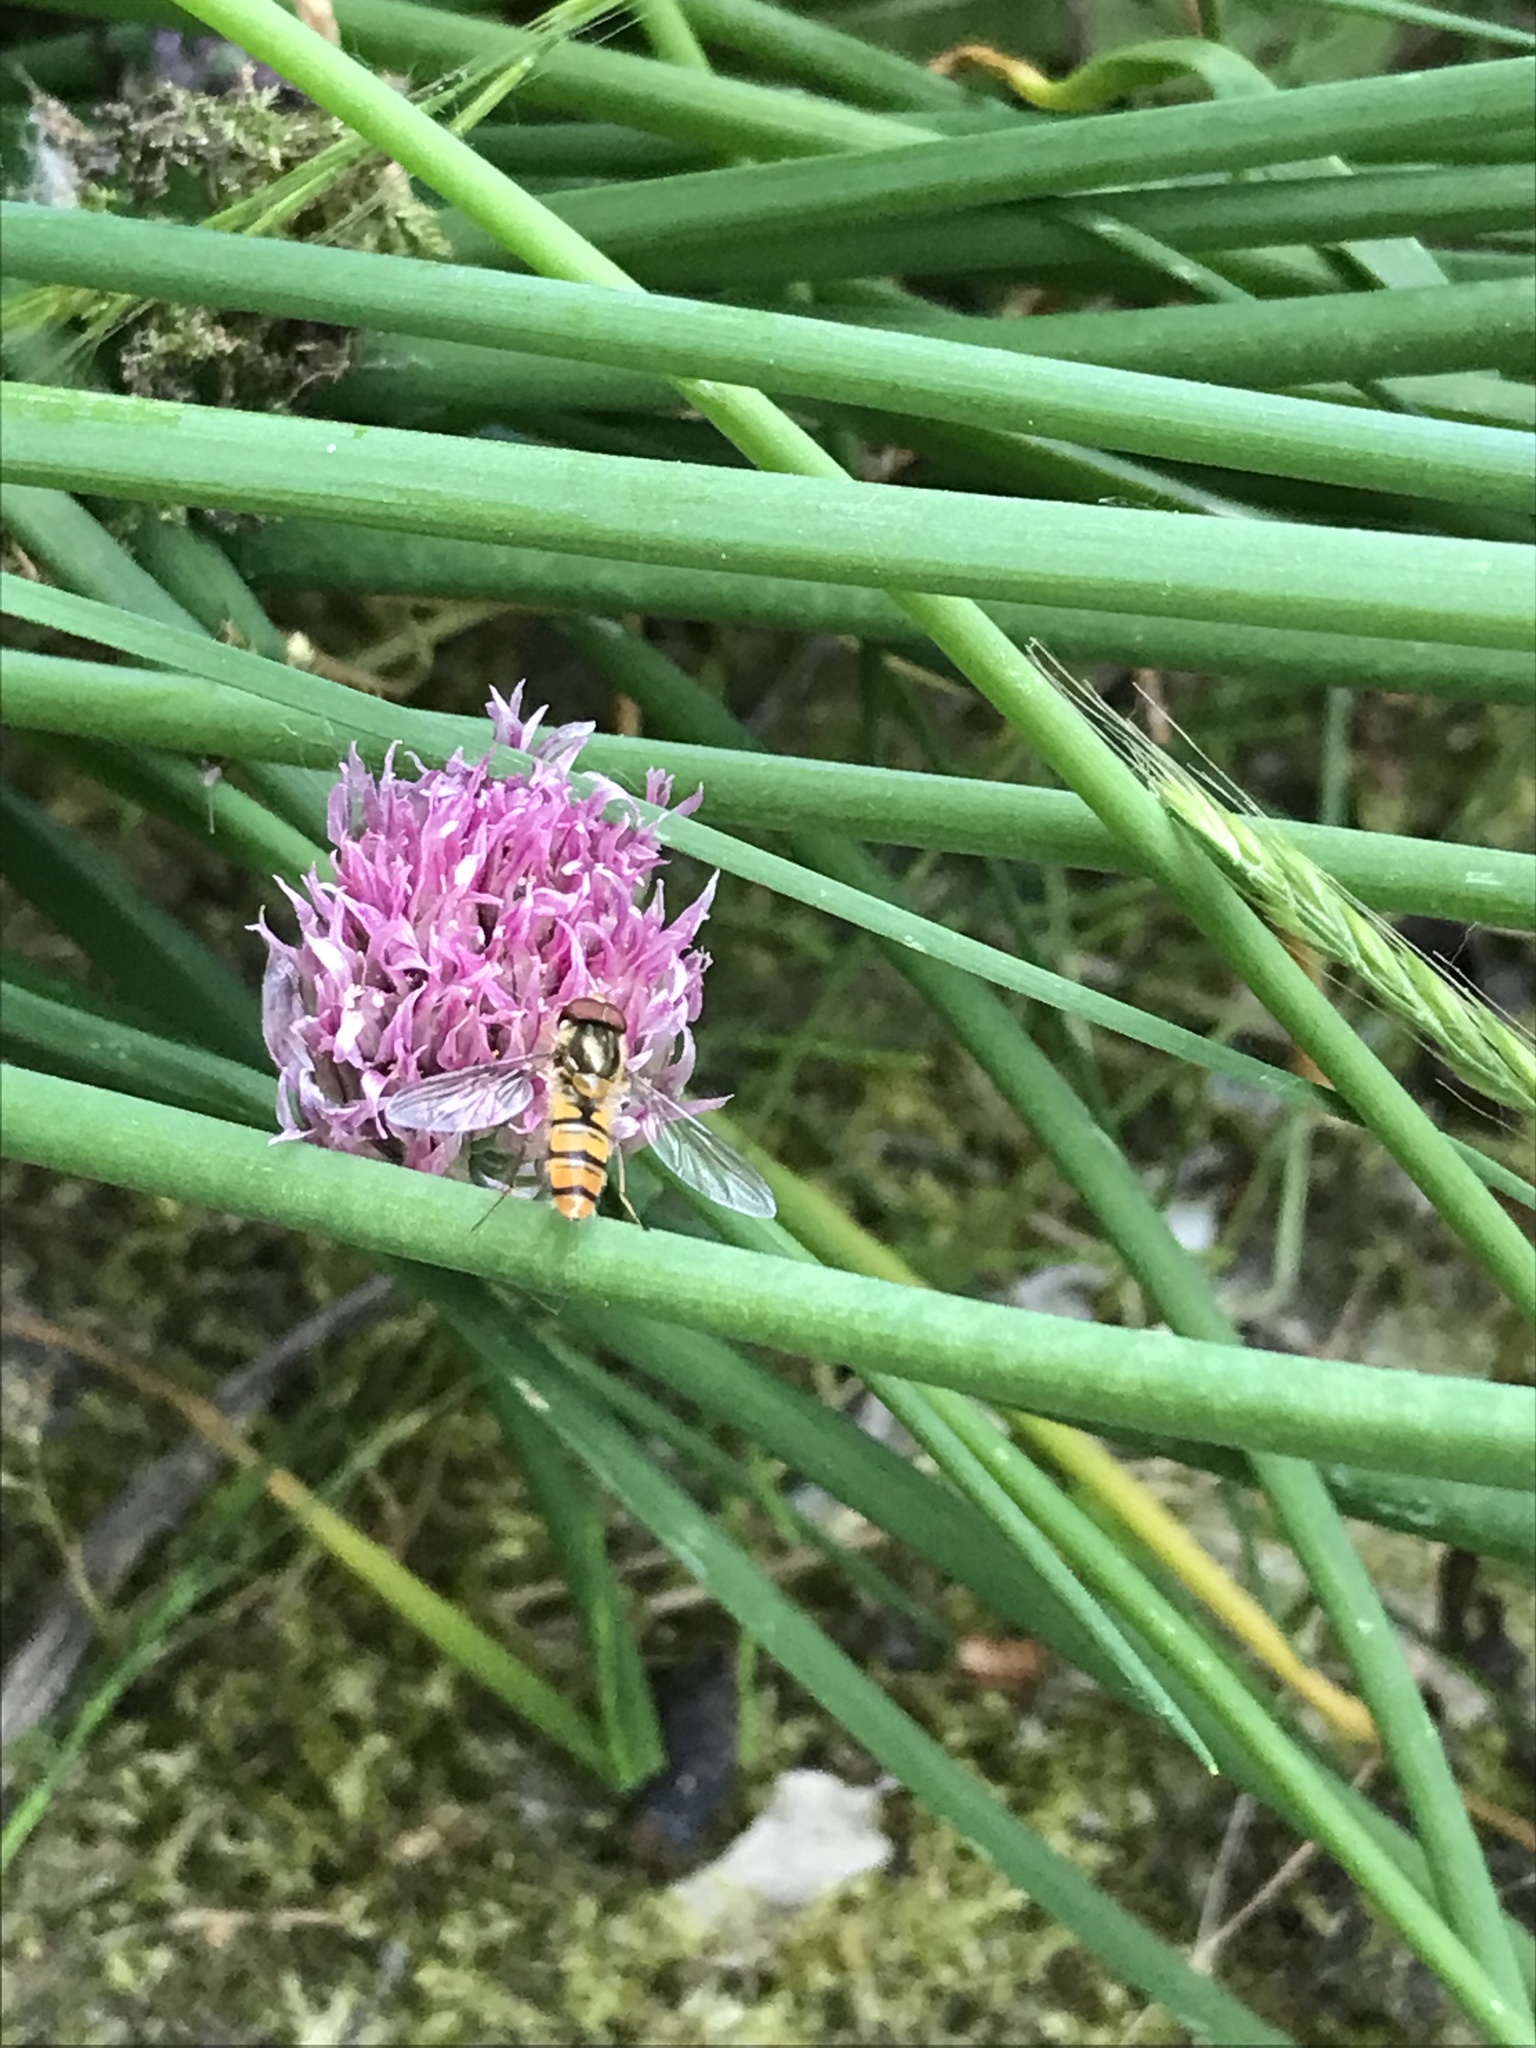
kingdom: Animalia
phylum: Arthropoda
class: Insecta
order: Diptera
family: Syrphidae
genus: Episyrphus
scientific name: Episyrphus balteatus
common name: Marmalade hoverfly
